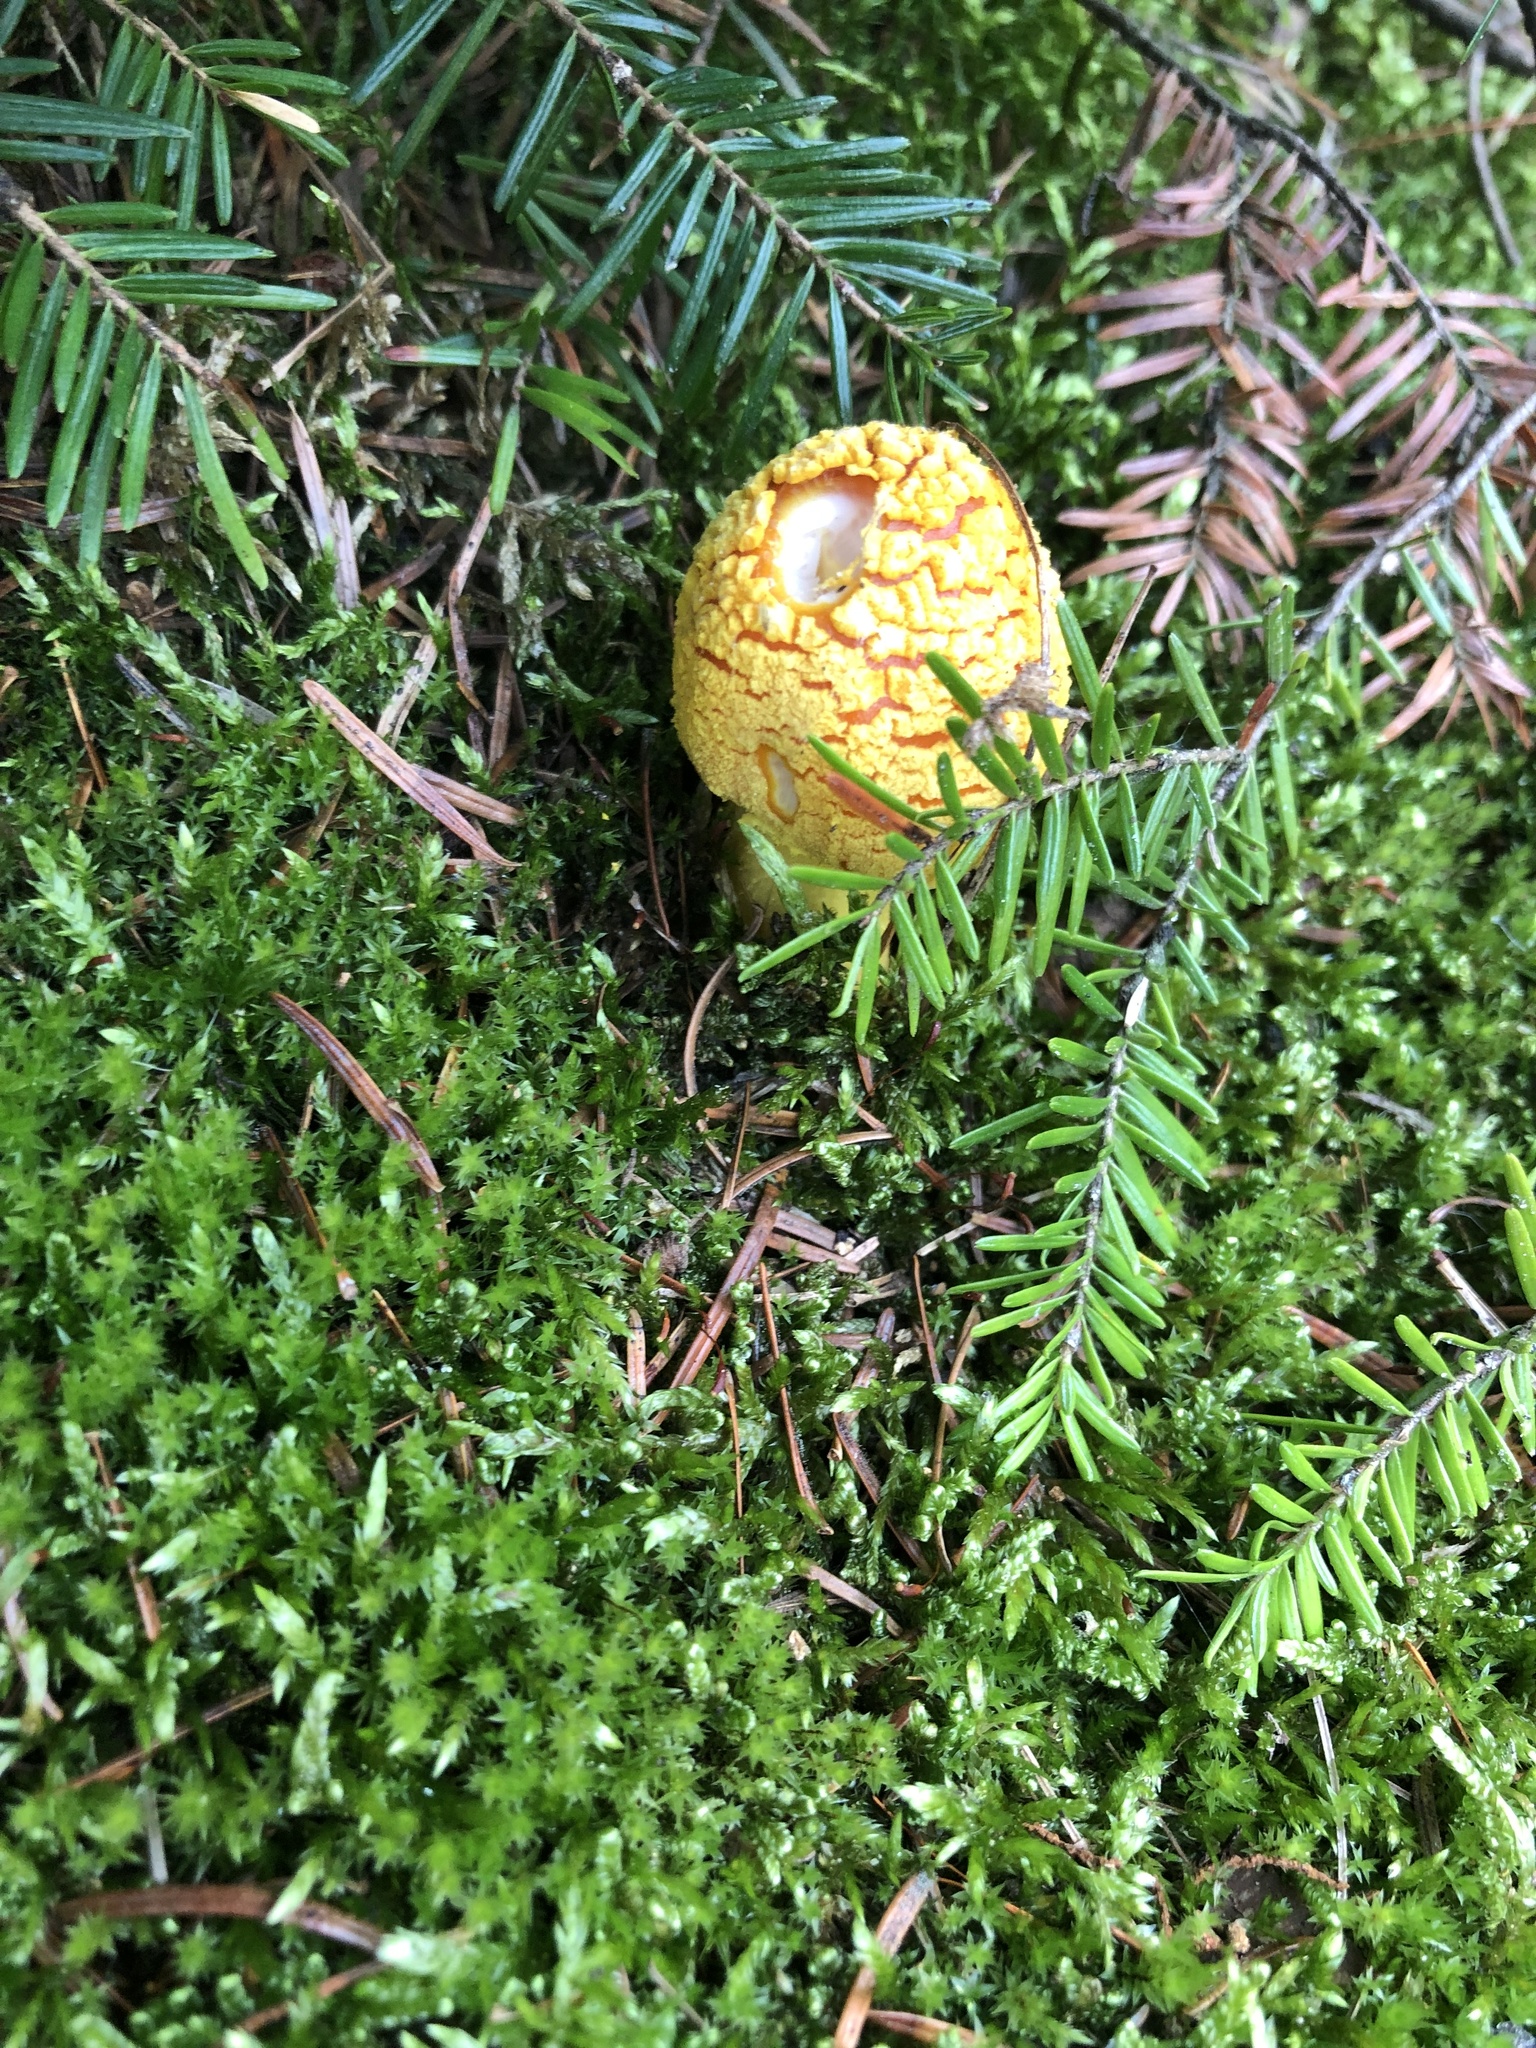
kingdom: Fungi
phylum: Basidiomycota
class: Agaricomycetes
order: Agaricales
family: Amanitaceae
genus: Amanita
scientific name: Amanita flavoconia
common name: Yellow patches
